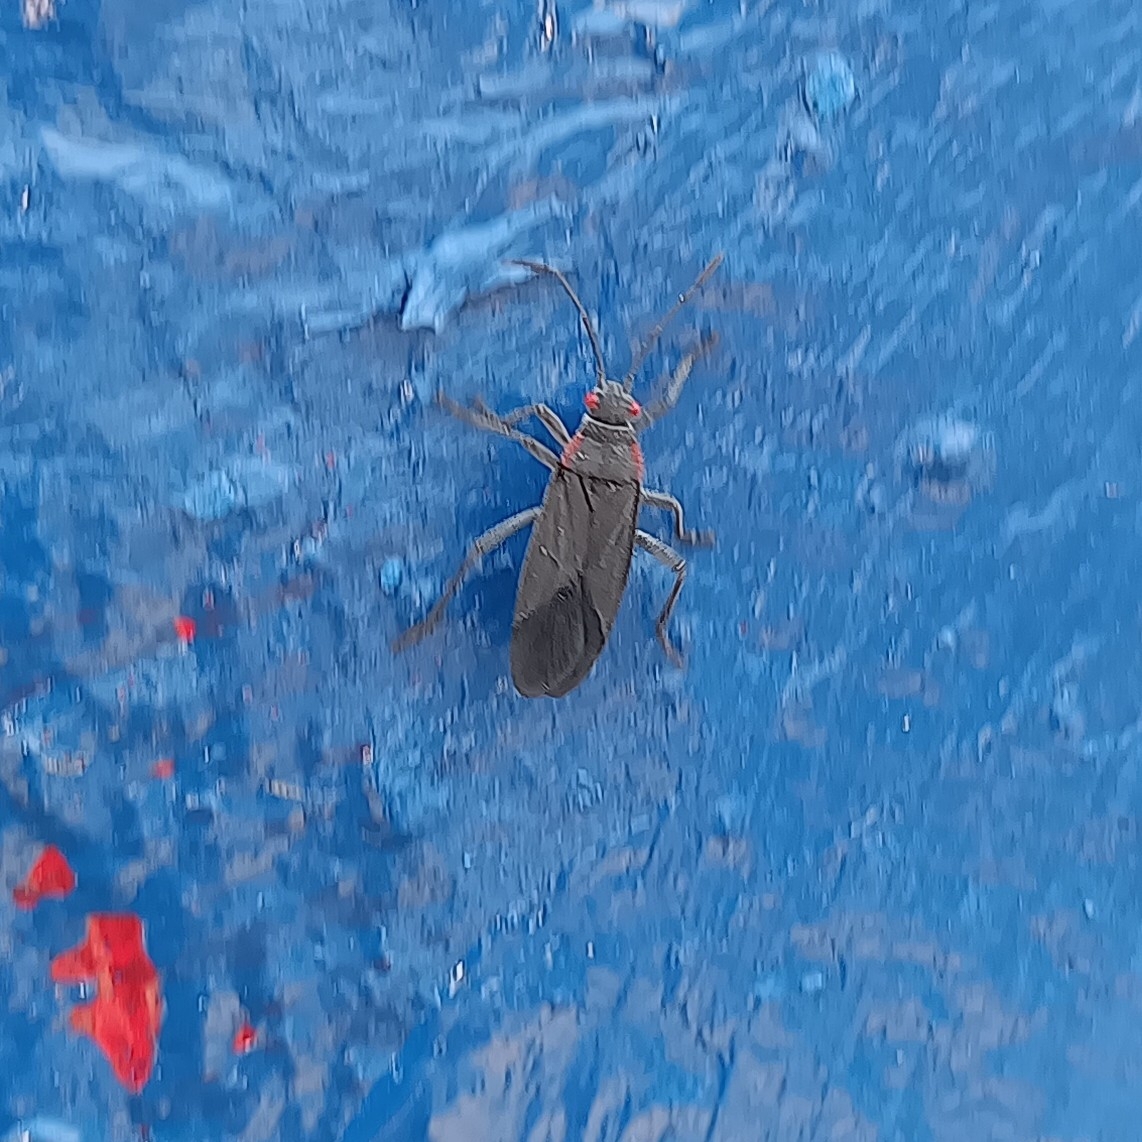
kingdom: Animalia
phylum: Arthropoda
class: Insecta
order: Hemiptera
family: Rhopalidae
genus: Jadera
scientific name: Jadera haematoloma
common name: Red-shouldered bug
